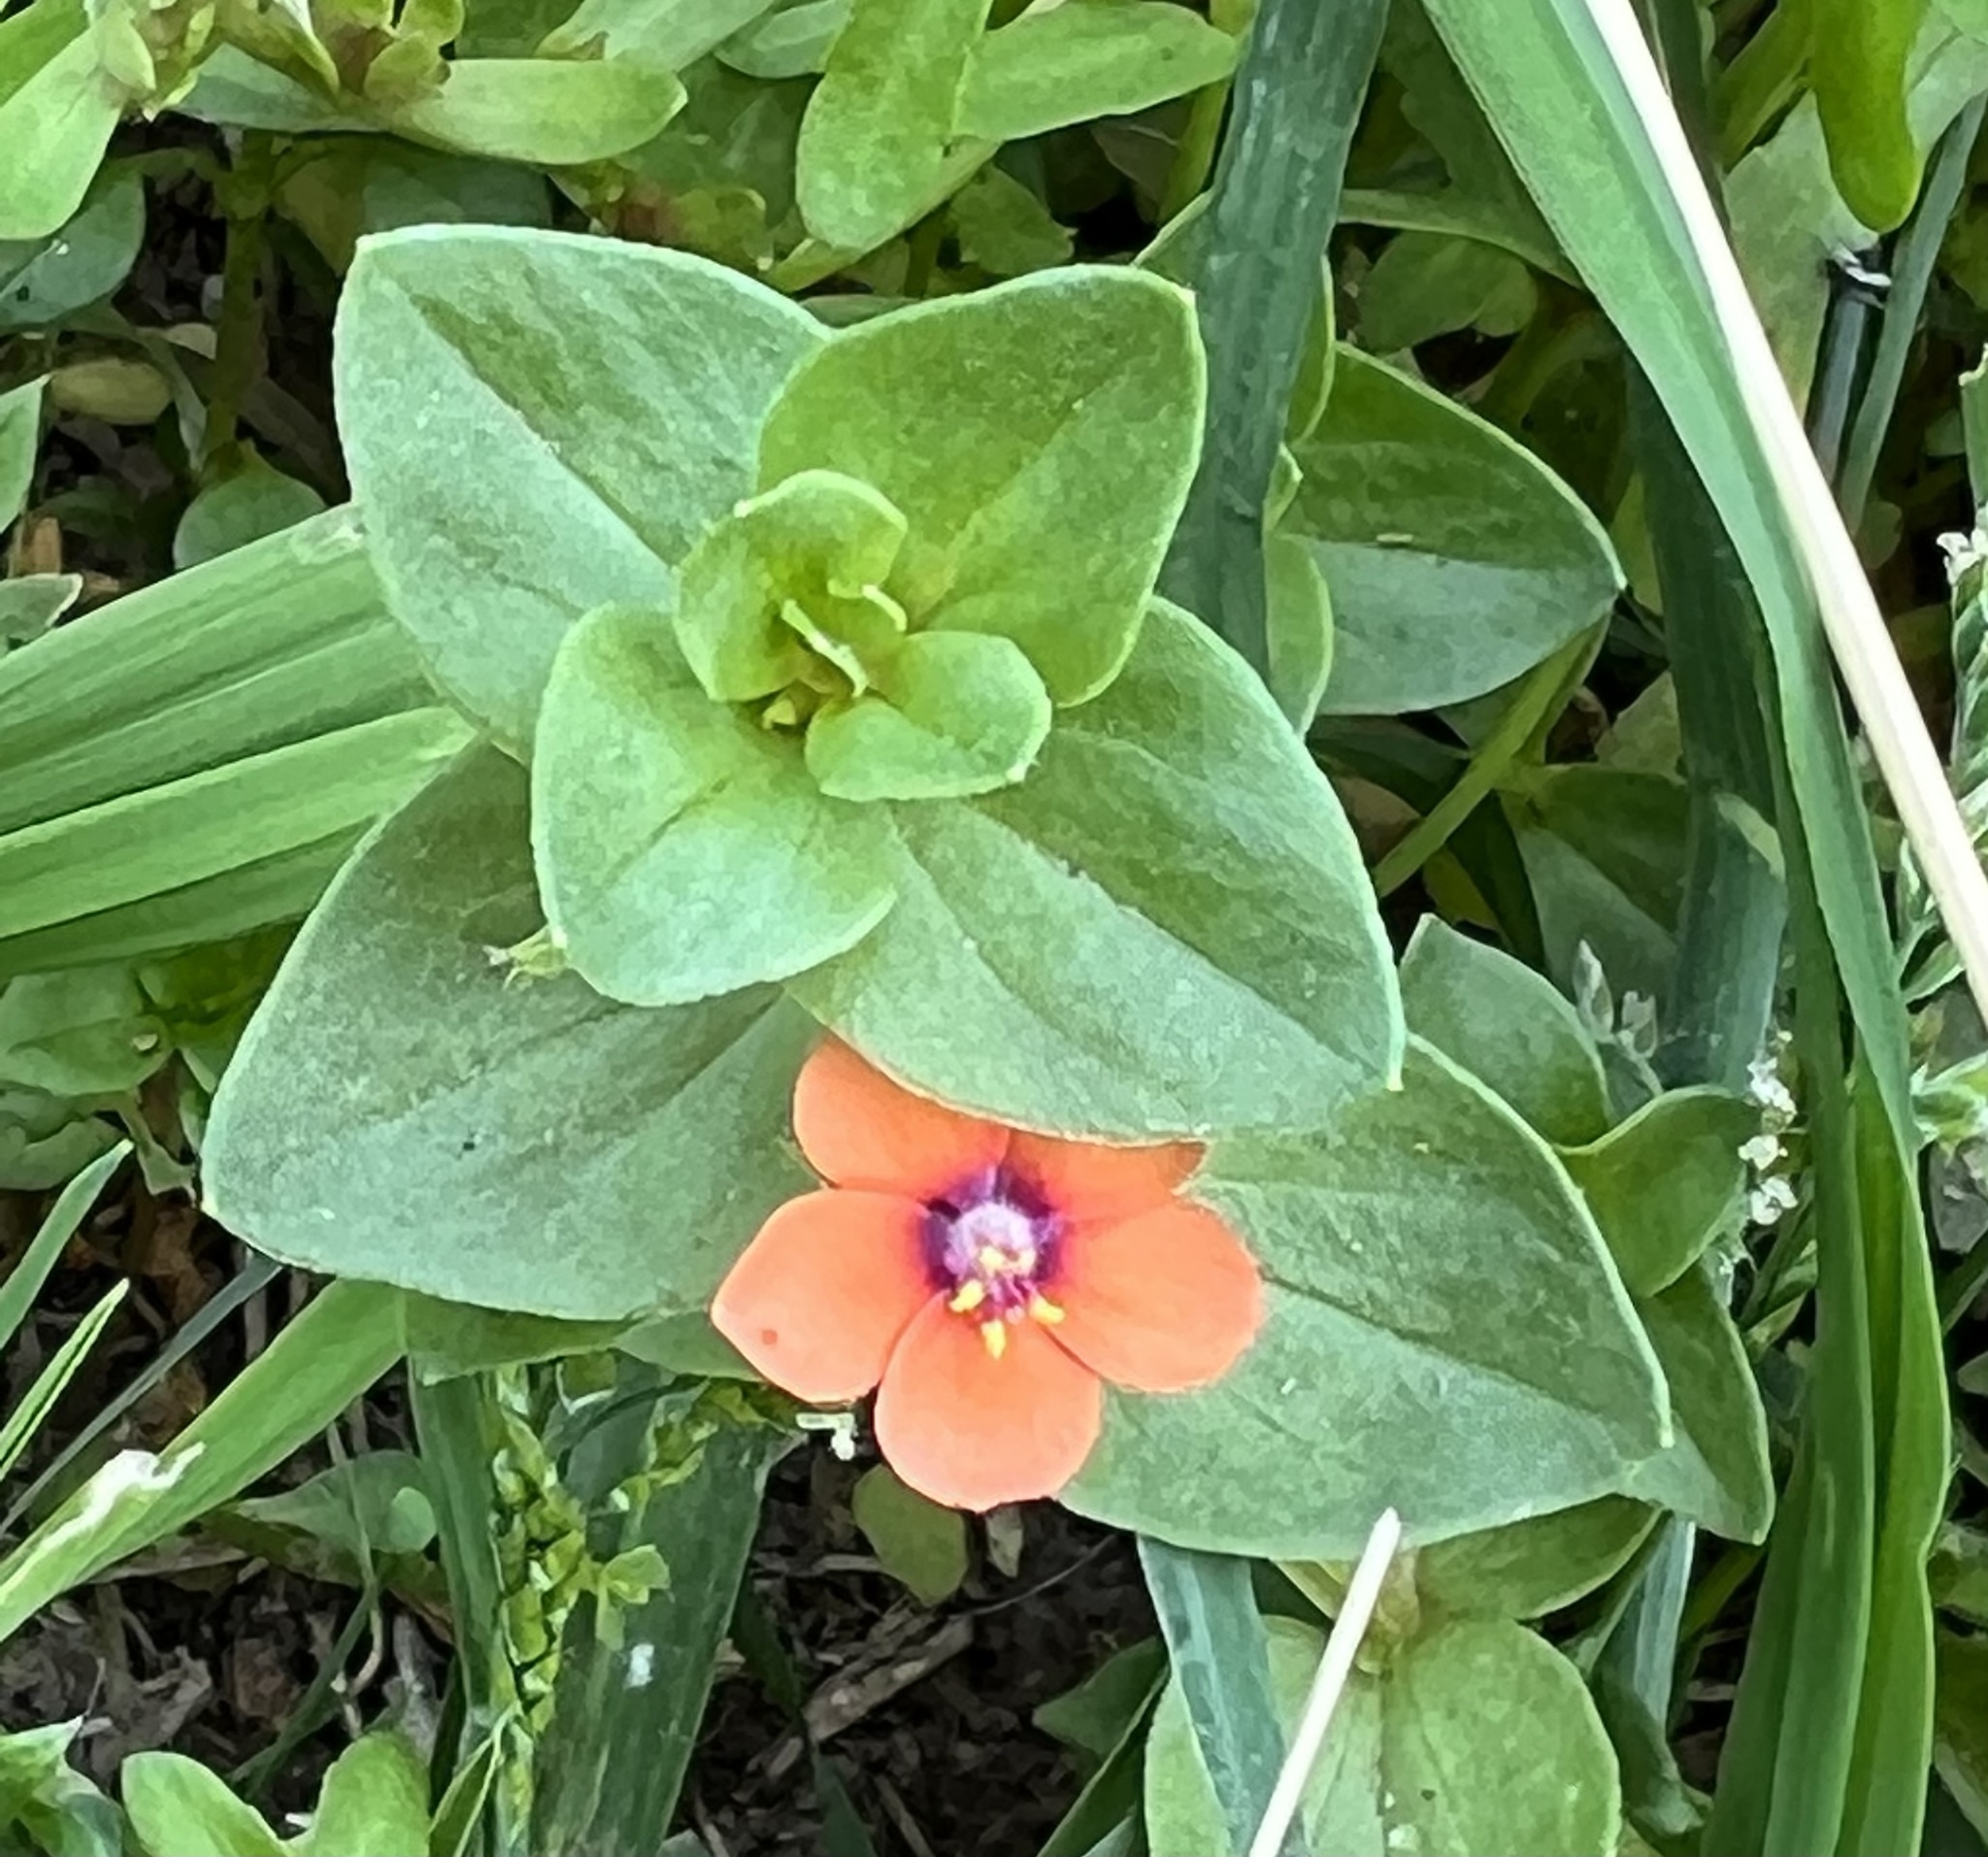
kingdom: Plantae
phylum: Tracheophyta
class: Magnoliopsida
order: Ericales
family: Primulaceae
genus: Lysimachia
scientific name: Lysimachia arvensis
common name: Scarlet pimpernel
